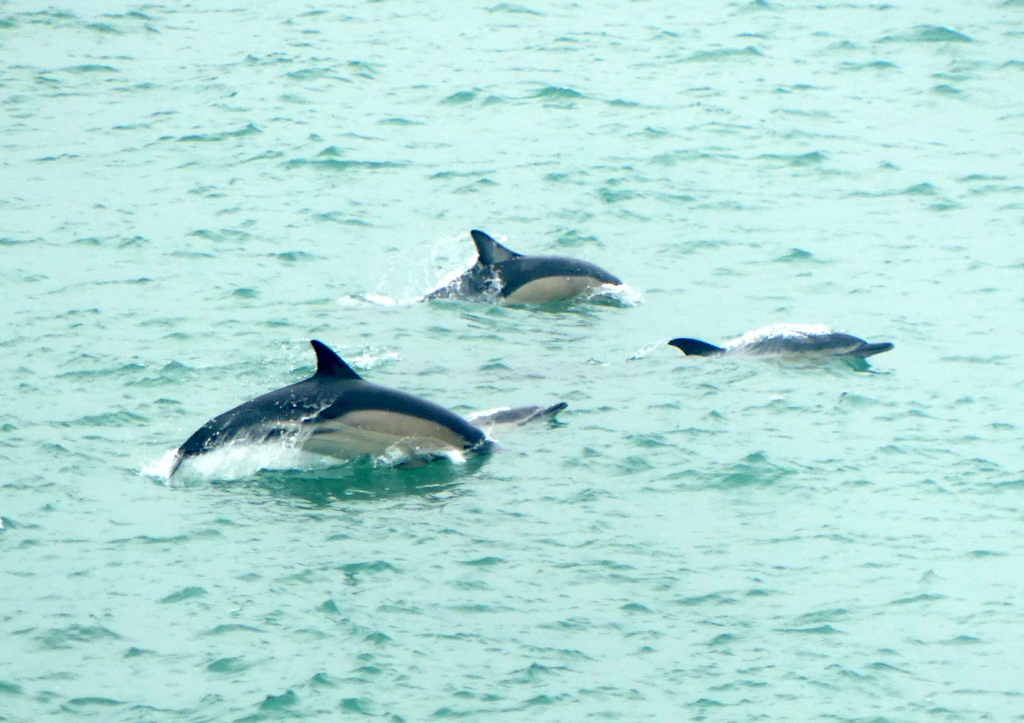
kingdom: Animalia
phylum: Chordata
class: Mammalia
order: Cetacea
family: Delphinidae
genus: Delphinus
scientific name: Delphinus delphis
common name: Common dolphin
